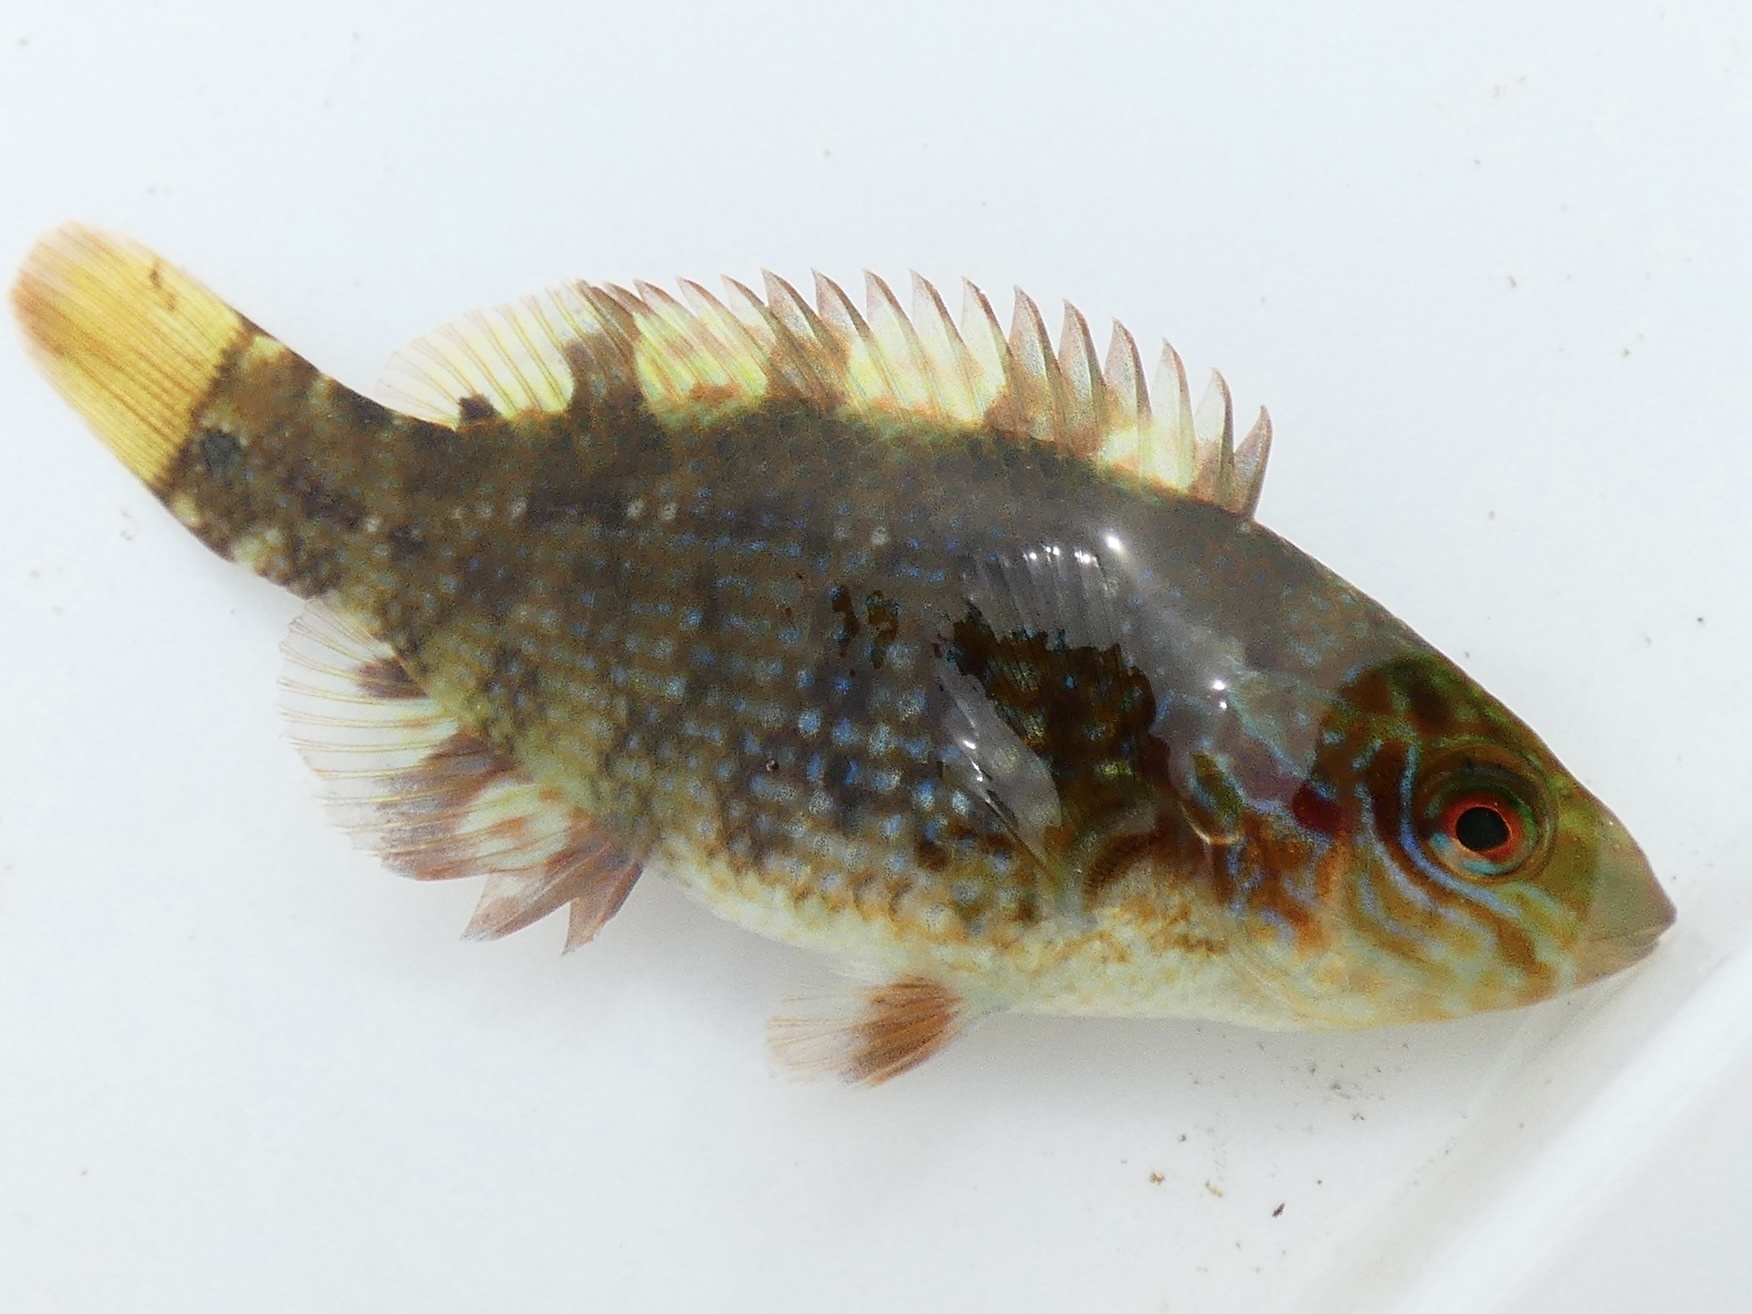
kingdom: Animalia
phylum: Chordata
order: Perciformes
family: Labridae
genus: Symphodus
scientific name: Symphodus melops
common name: Corkwing
